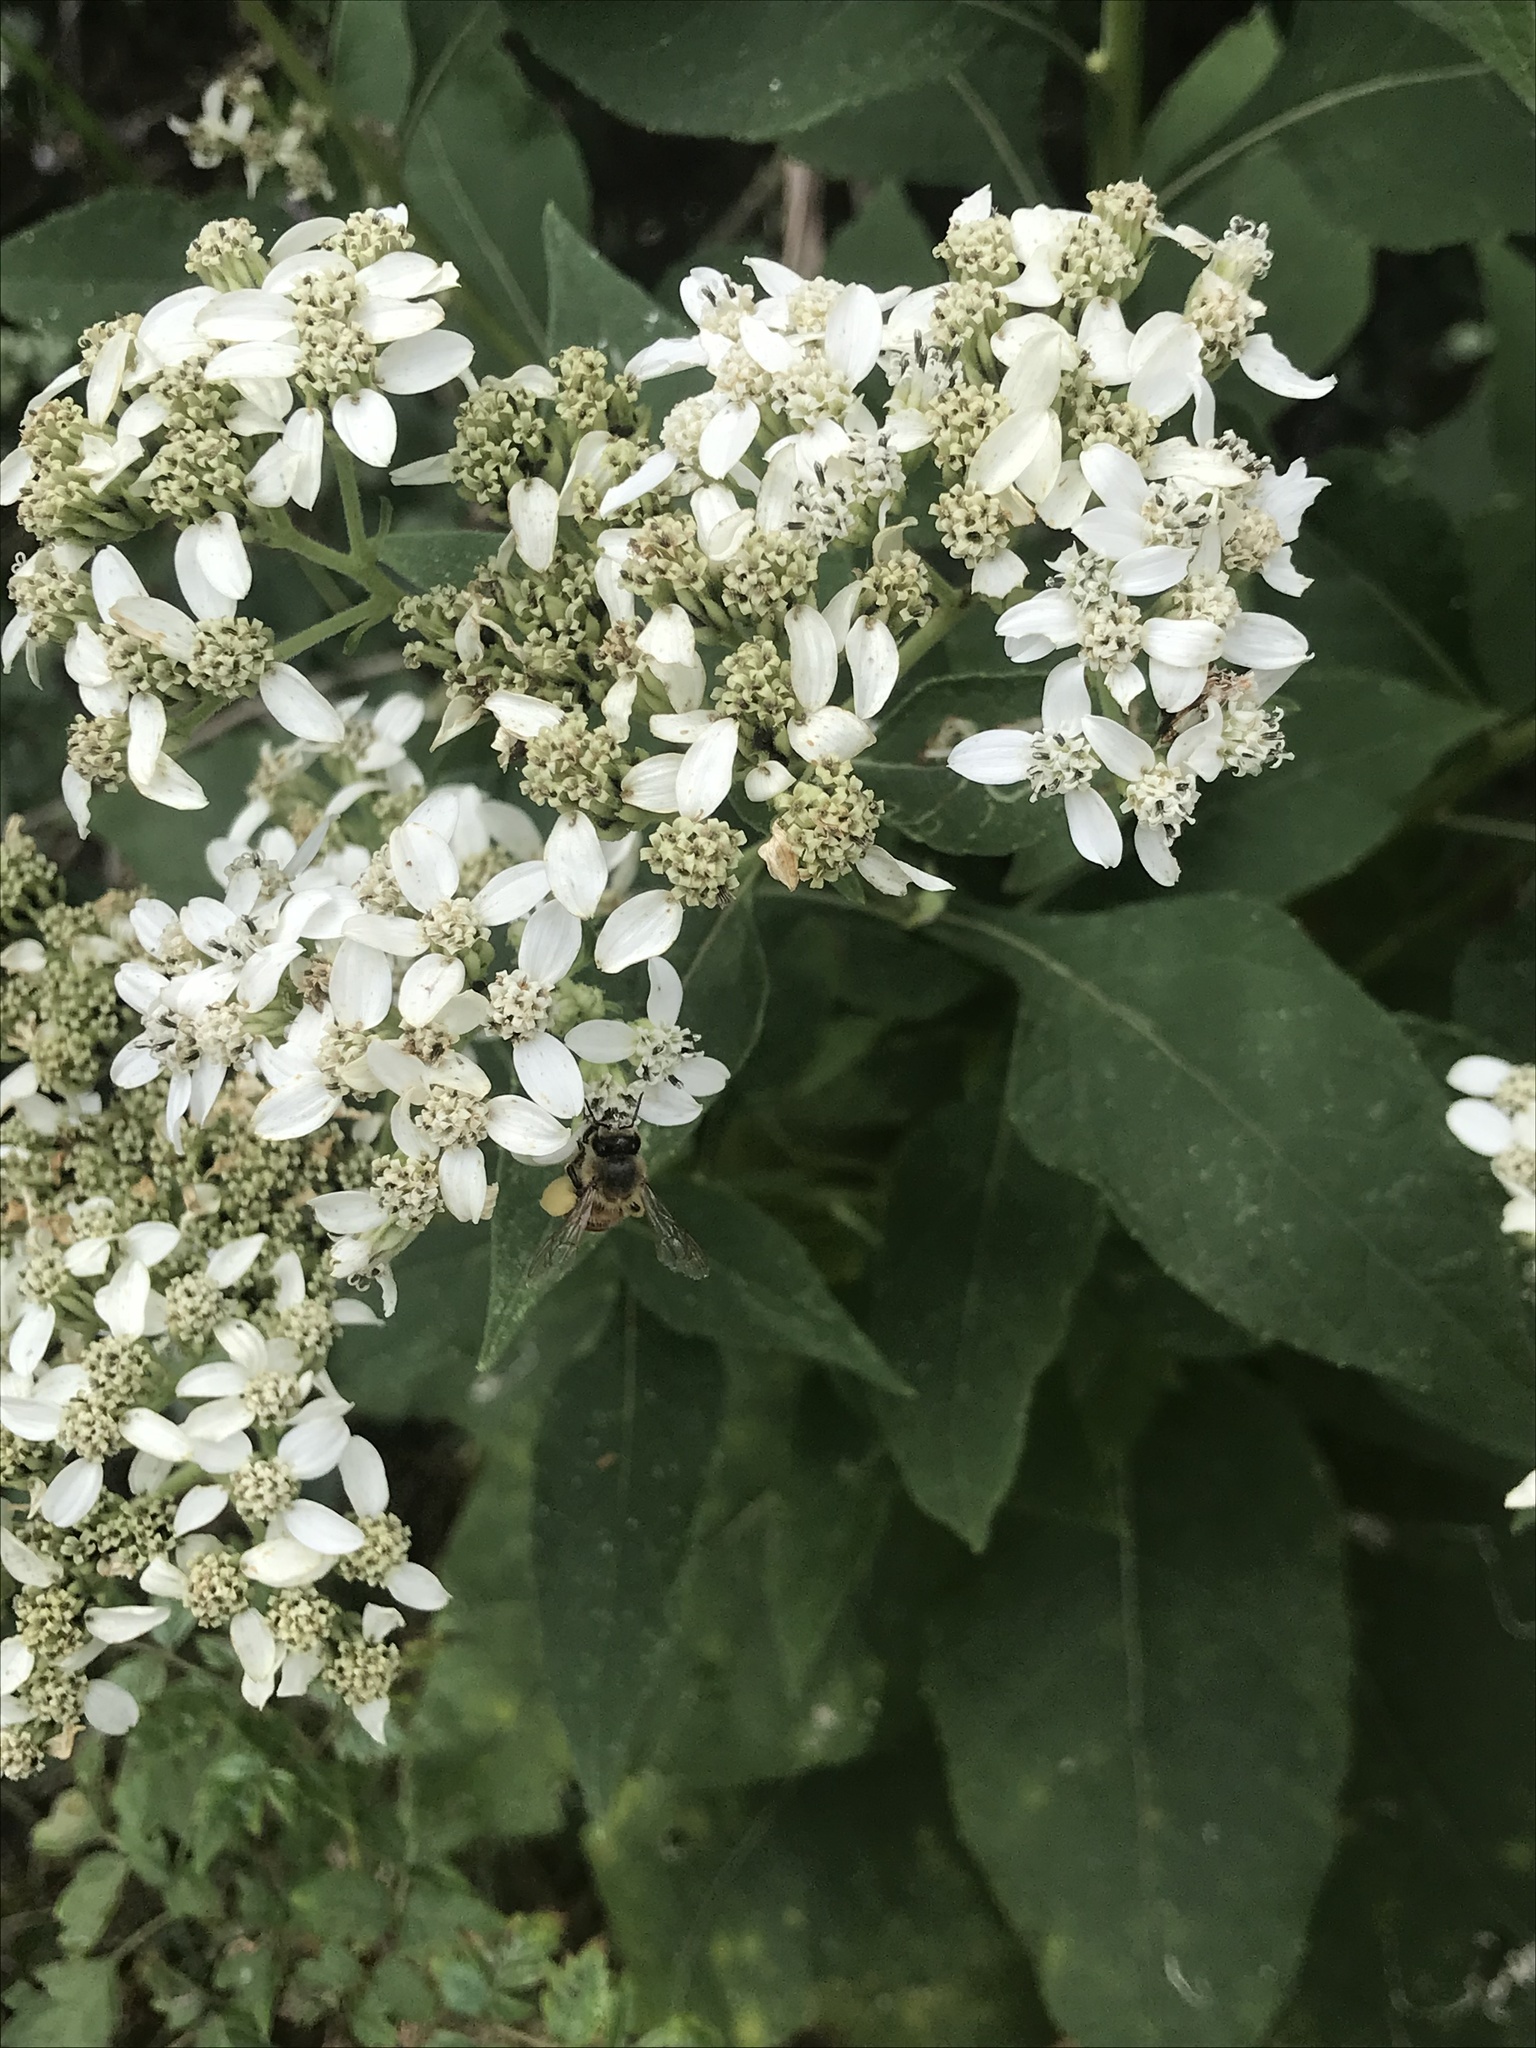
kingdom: Plantae
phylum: Tracheophyta
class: Magnoliopsida
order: Asterales
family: Asteraceae
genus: Verbesina
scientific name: Verbesina virginica
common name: Frostweed
